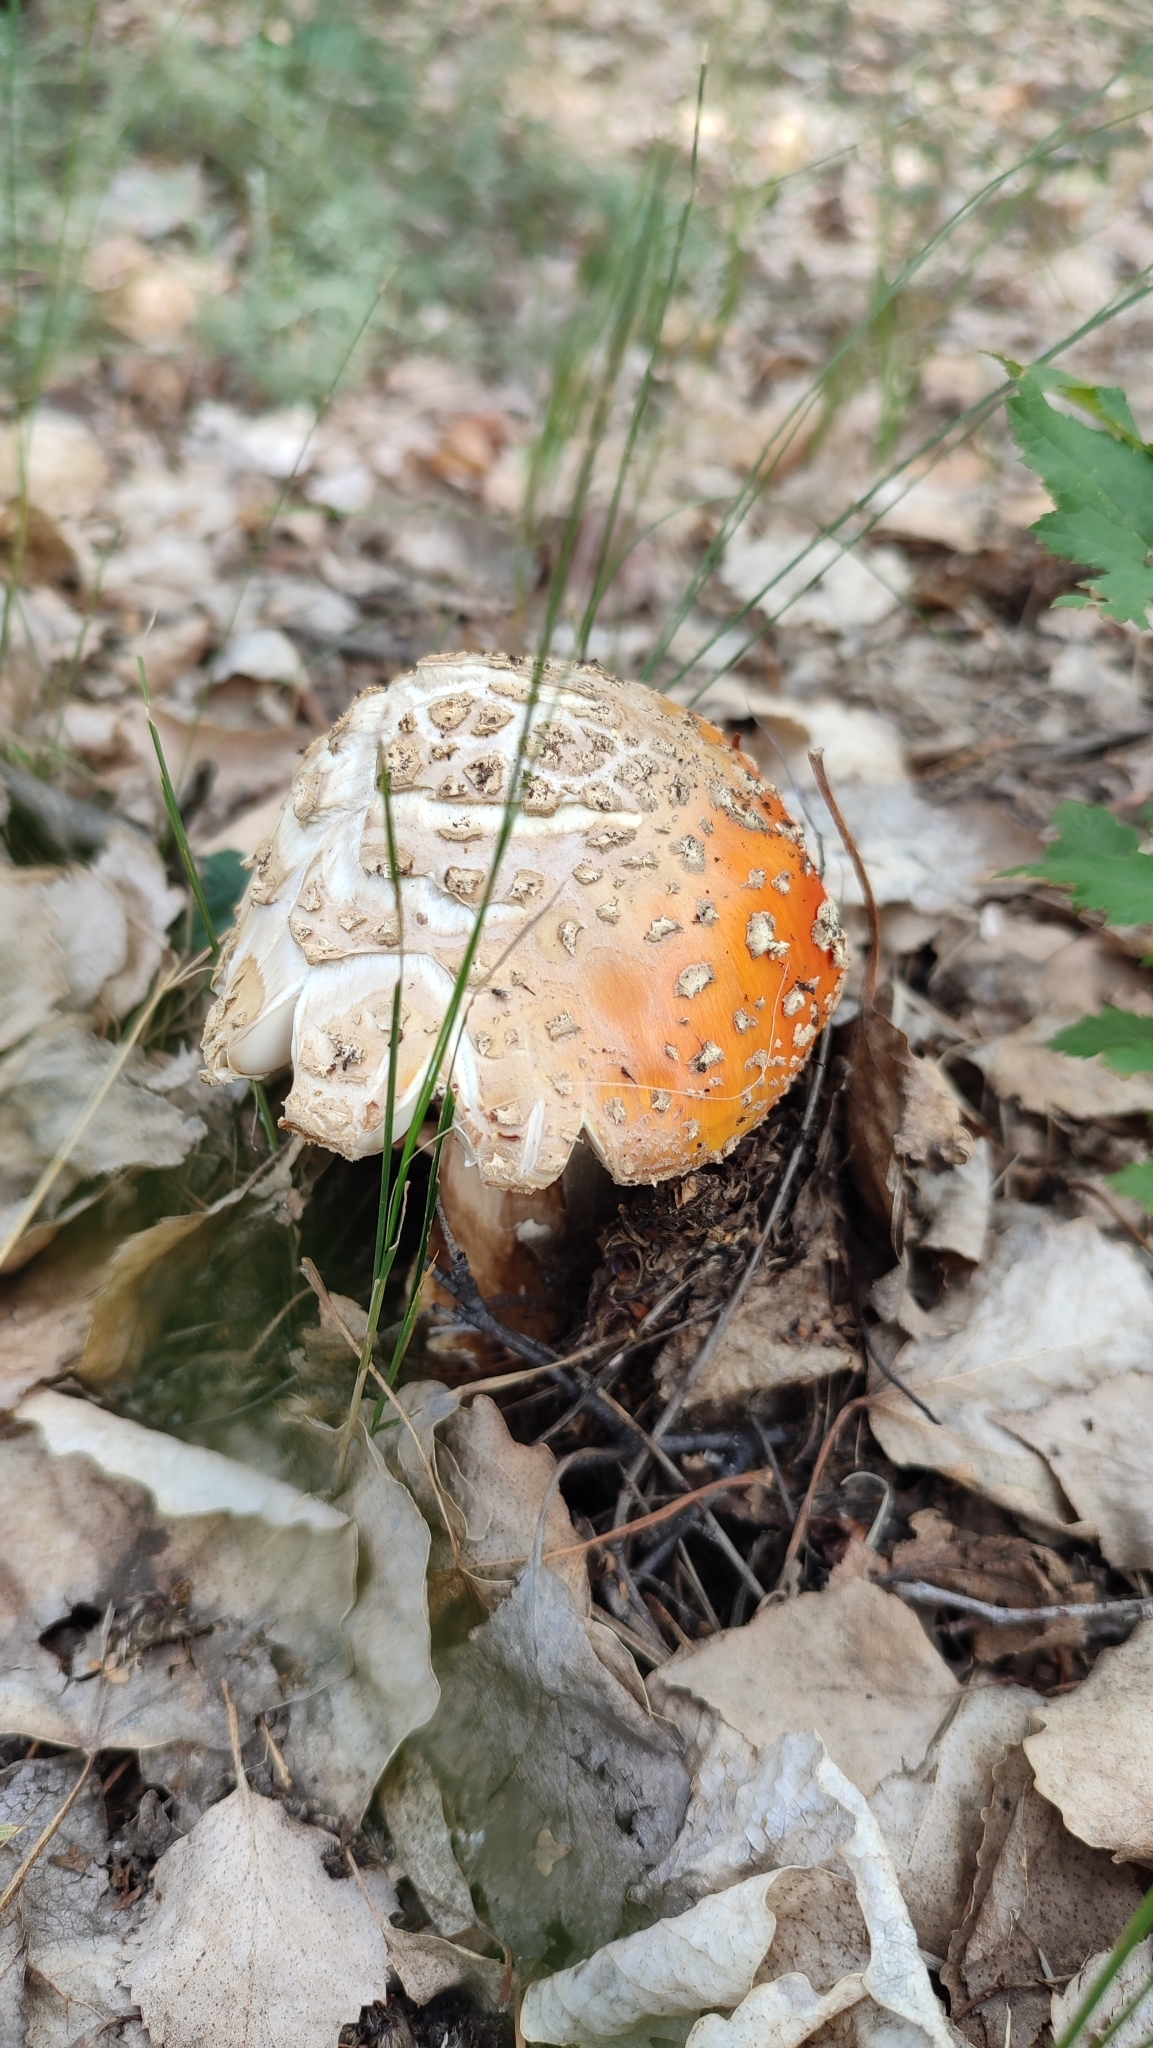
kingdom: Fungi
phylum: Basidiomycota
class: Agaricomycetes
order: Agaricales
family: Amanitaceae
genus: Amanita
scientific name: Amanita muscaria
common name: Fly agaric
